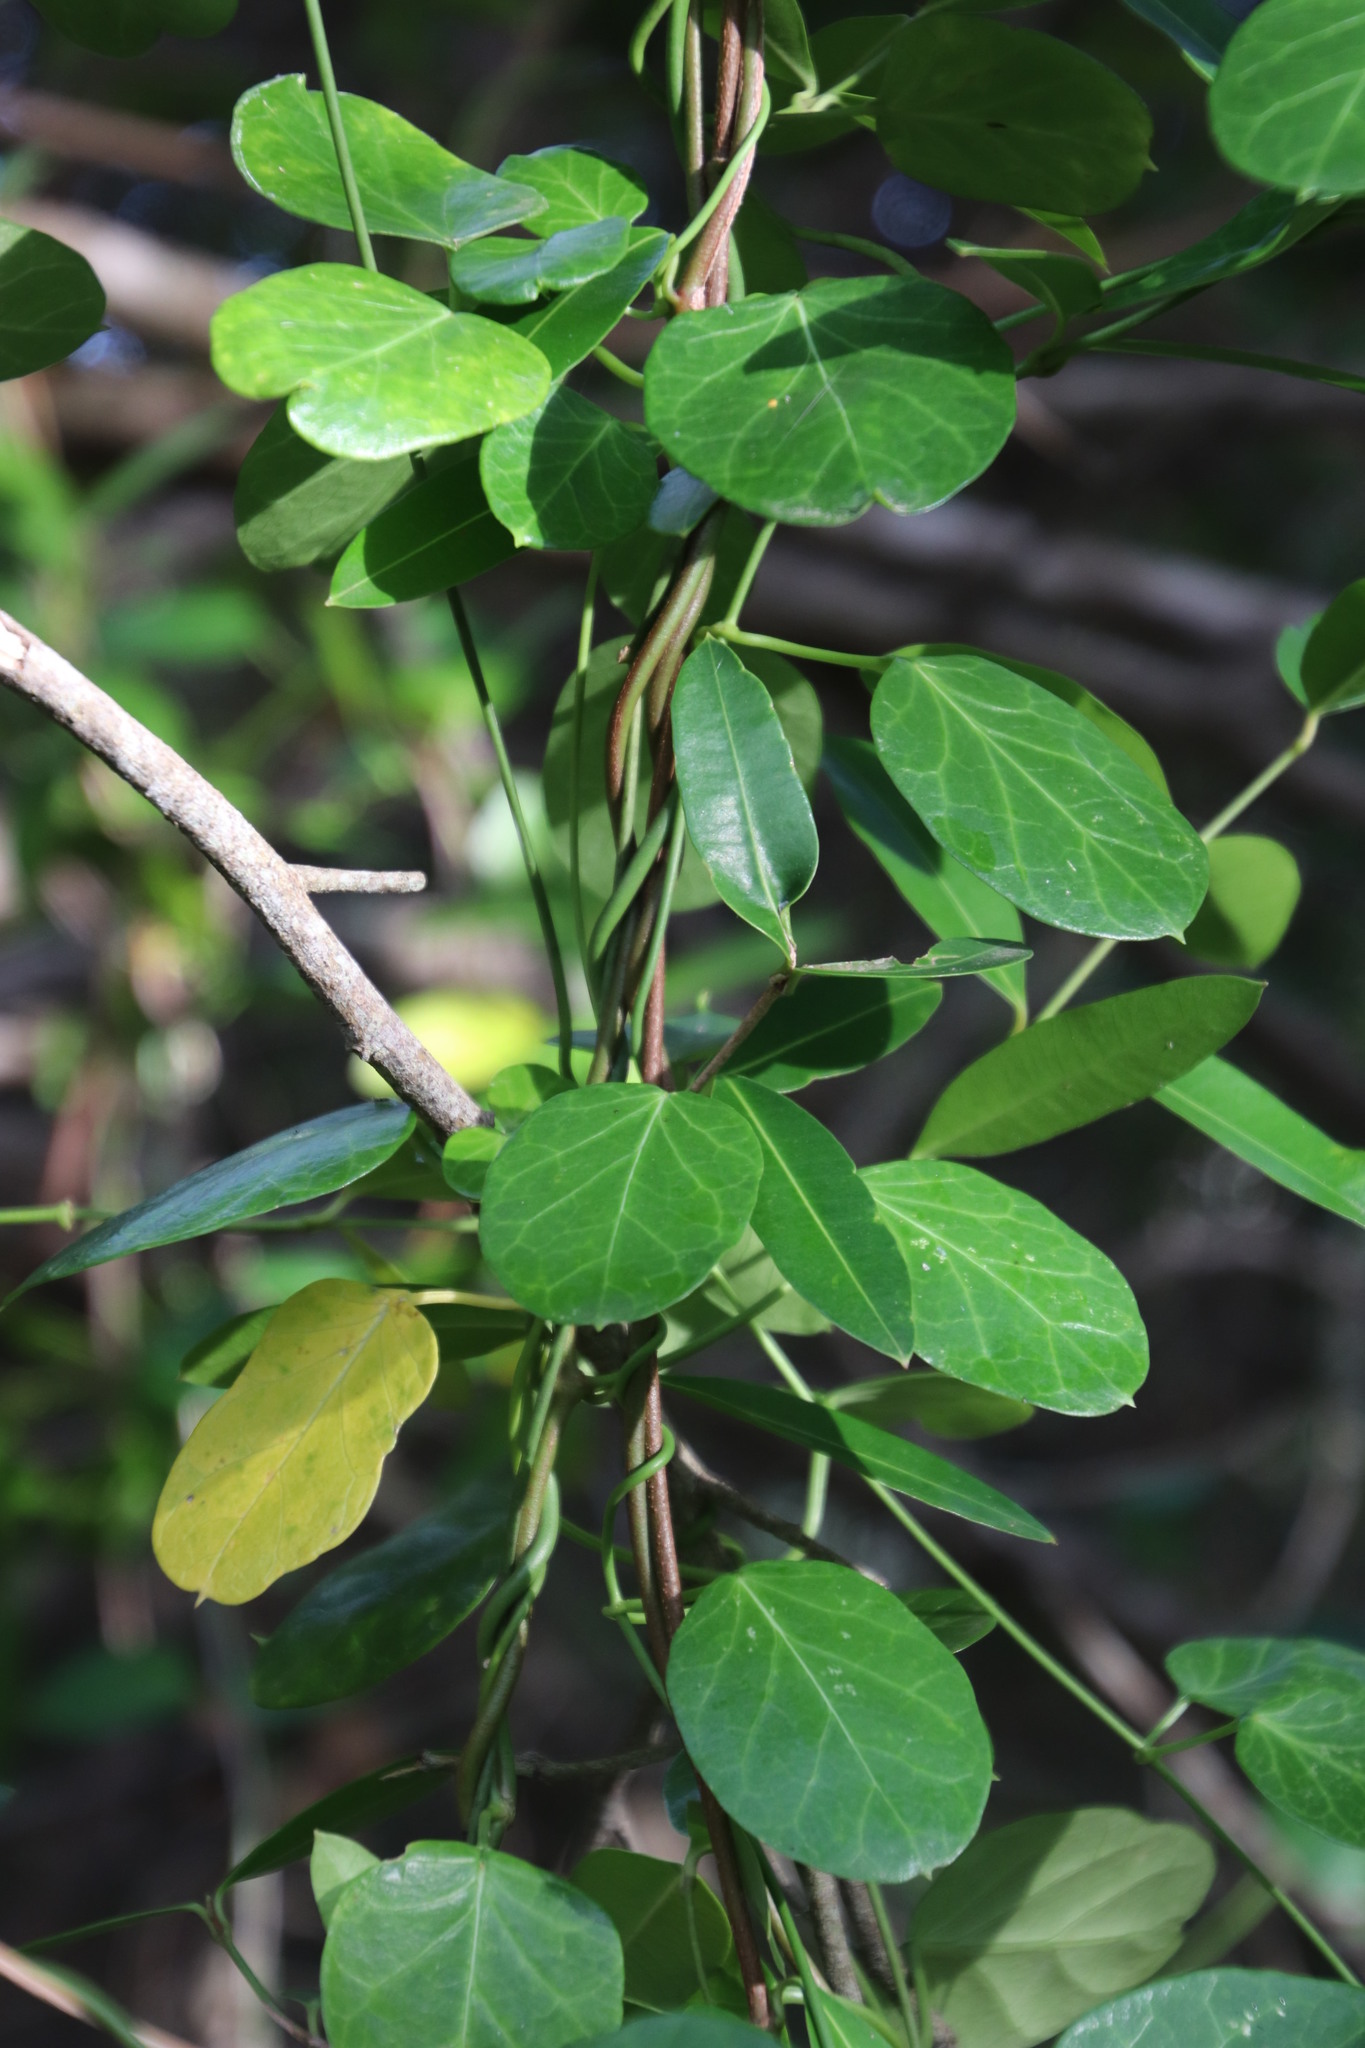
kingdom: Plantae
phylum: Tracheophyta
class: Magnoliopsida
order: Gentianales
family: Apocynaceae
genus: Cynanchum
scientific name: Cynanchum obtusifolium
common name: Monkey-rope
